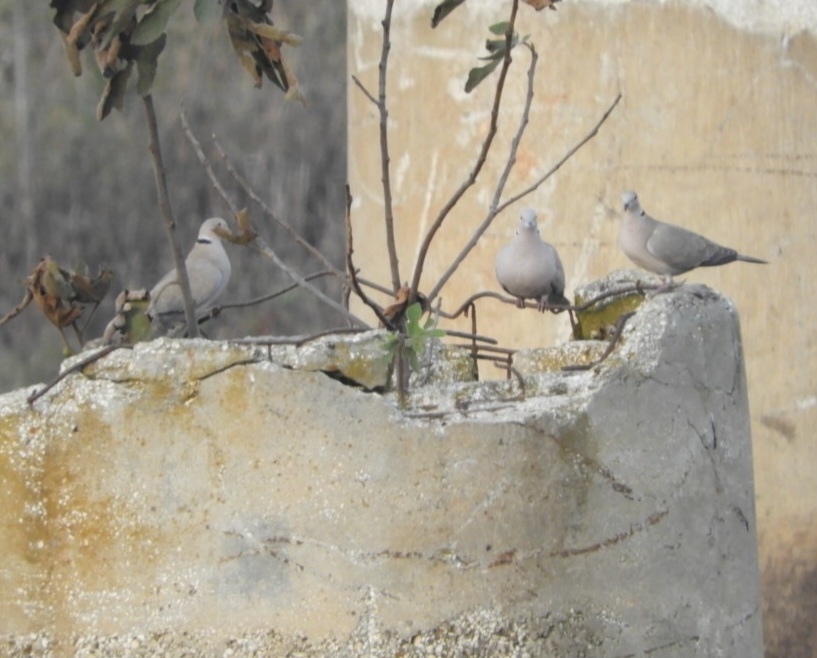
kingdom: Animalia
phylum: Chordata
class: Aves
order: Columbiformes
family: Columbidae
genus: Streptopelia
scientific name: Streptopelia decaocto
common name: Eurasian collared dove
